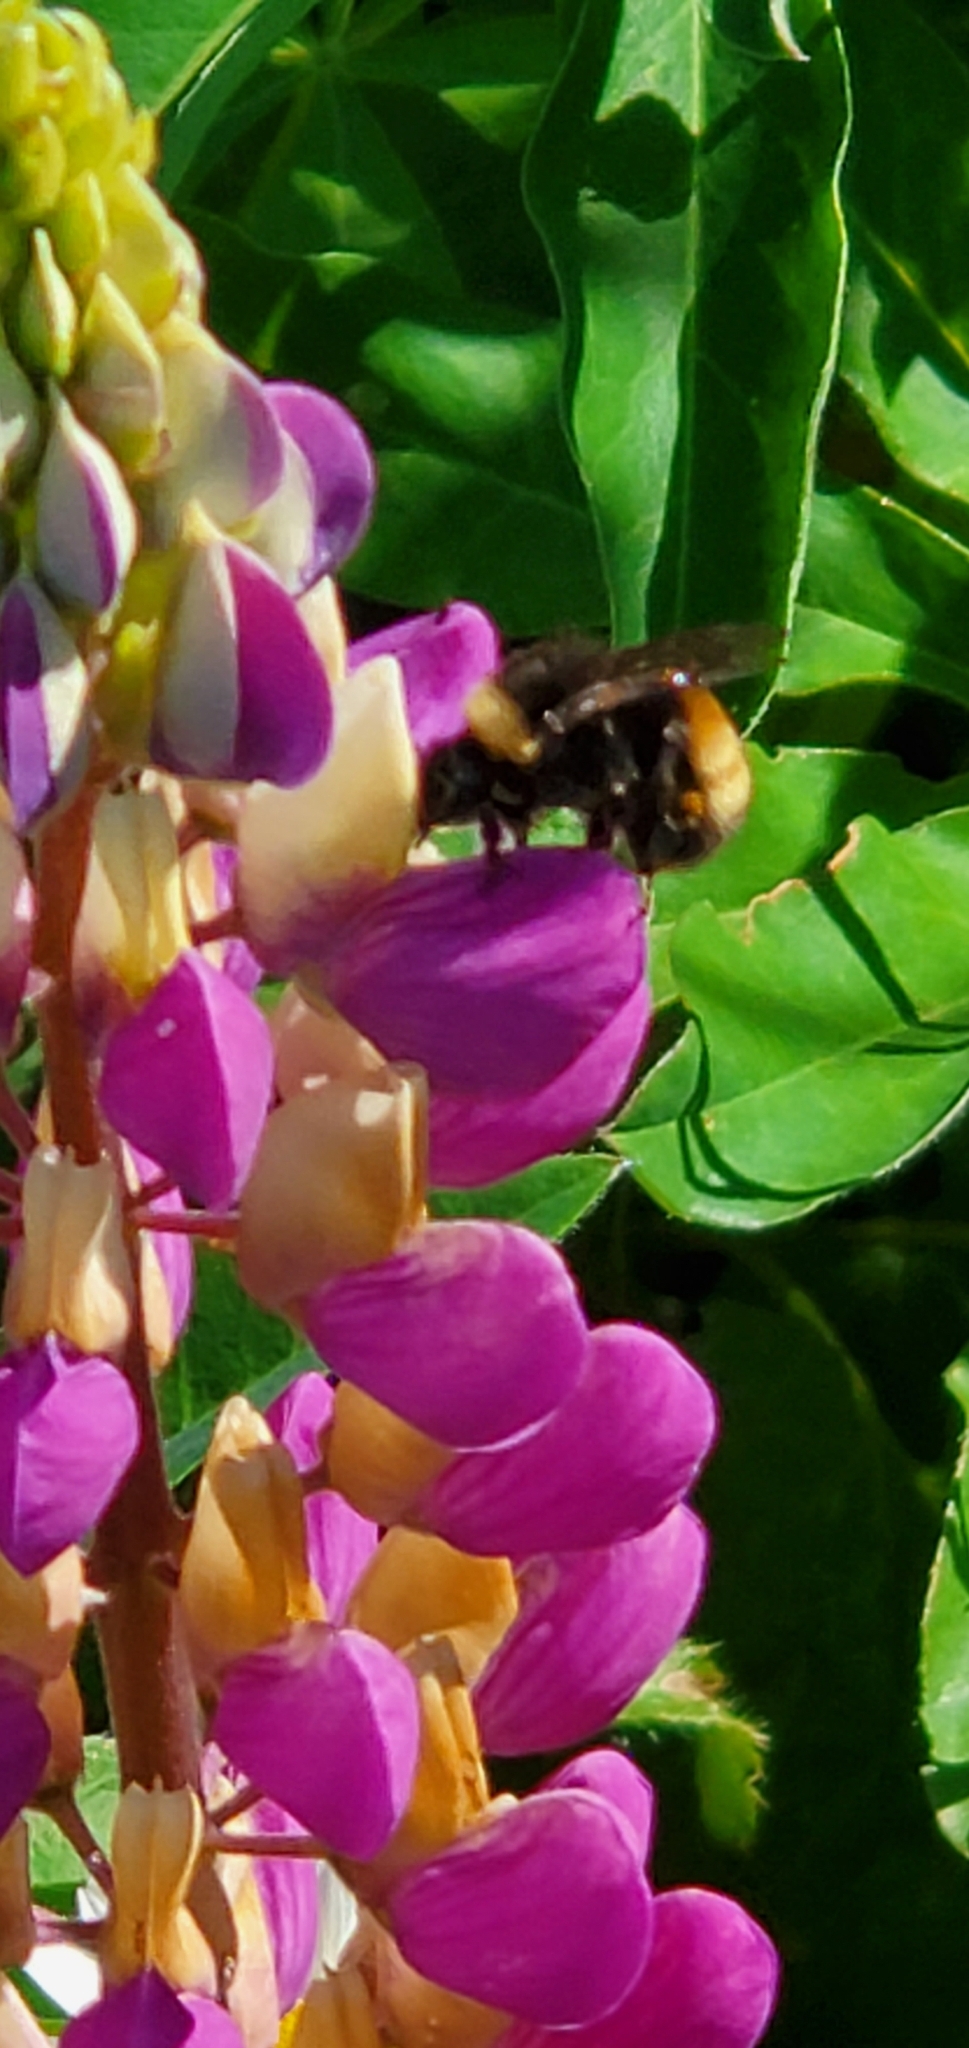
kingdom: Animalia
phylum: Arthropoda
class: Insecta
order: Hymenoptera
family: Apidae
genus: Bombus
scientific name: Bombus terricola
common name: Yellow-banded bumble bee
